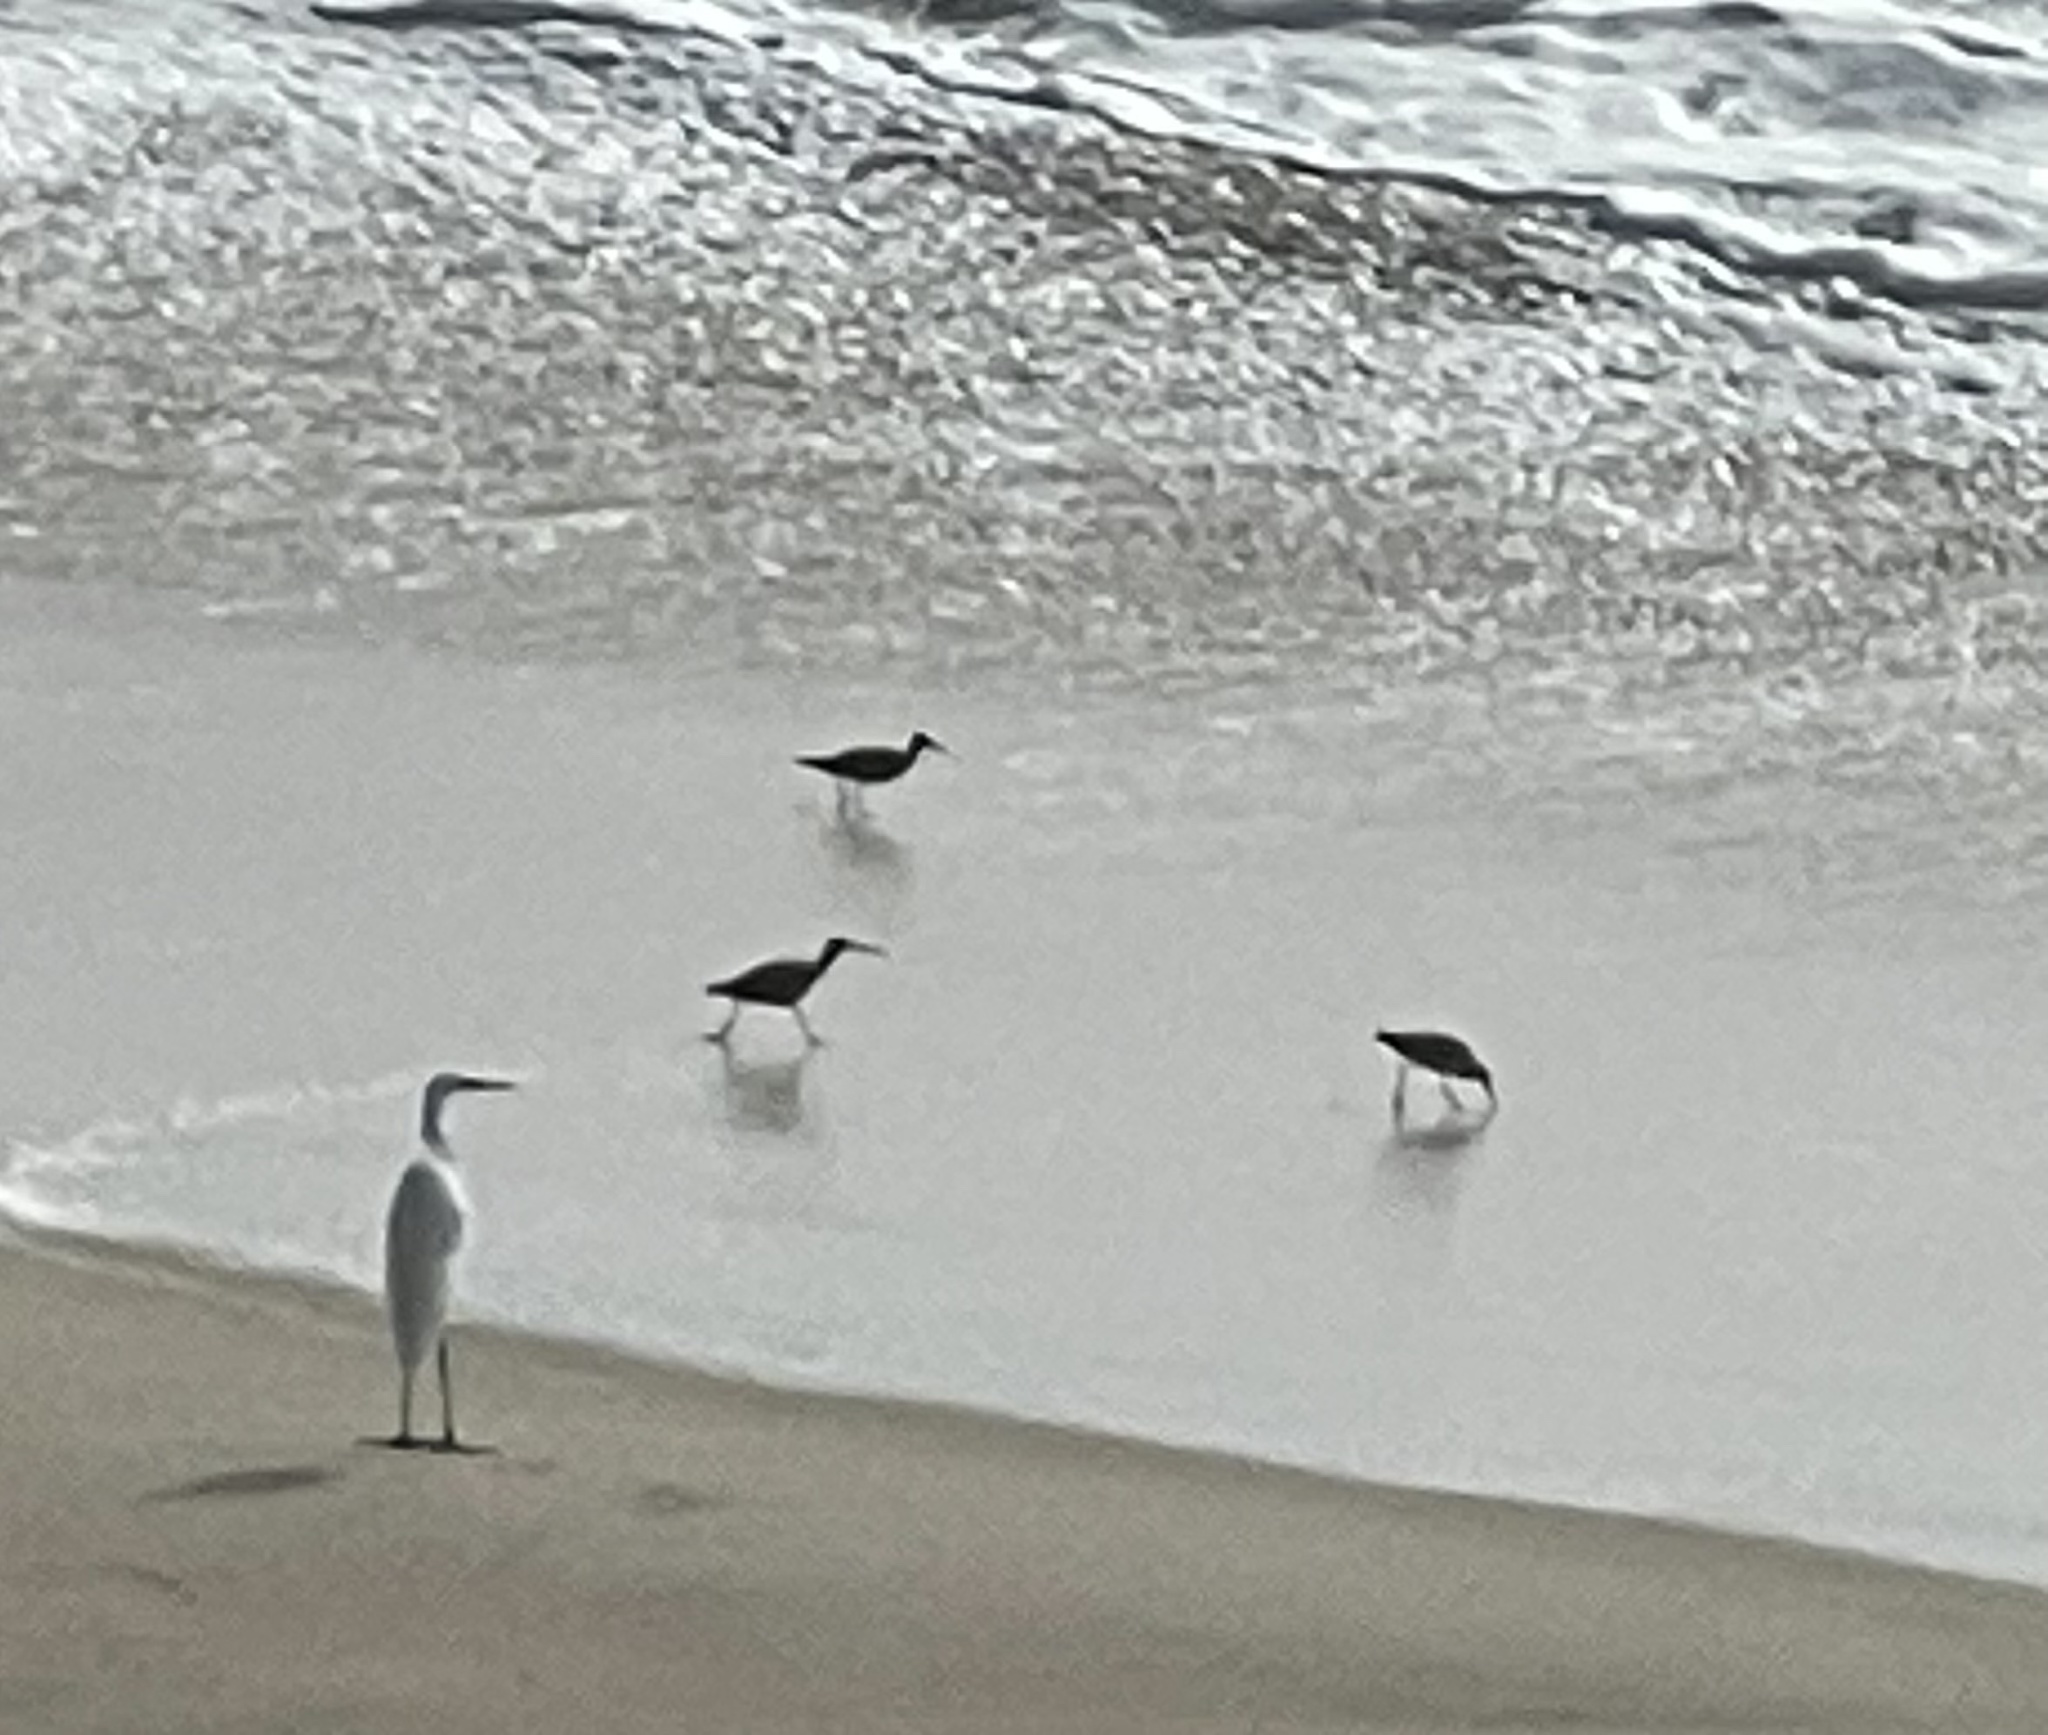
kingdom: Animalia
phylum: Chordata
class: Aves
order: Charadriiformes
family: Scolopacidae
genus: Numenius
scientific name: Numenius phaeopus
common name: Whimbrel
